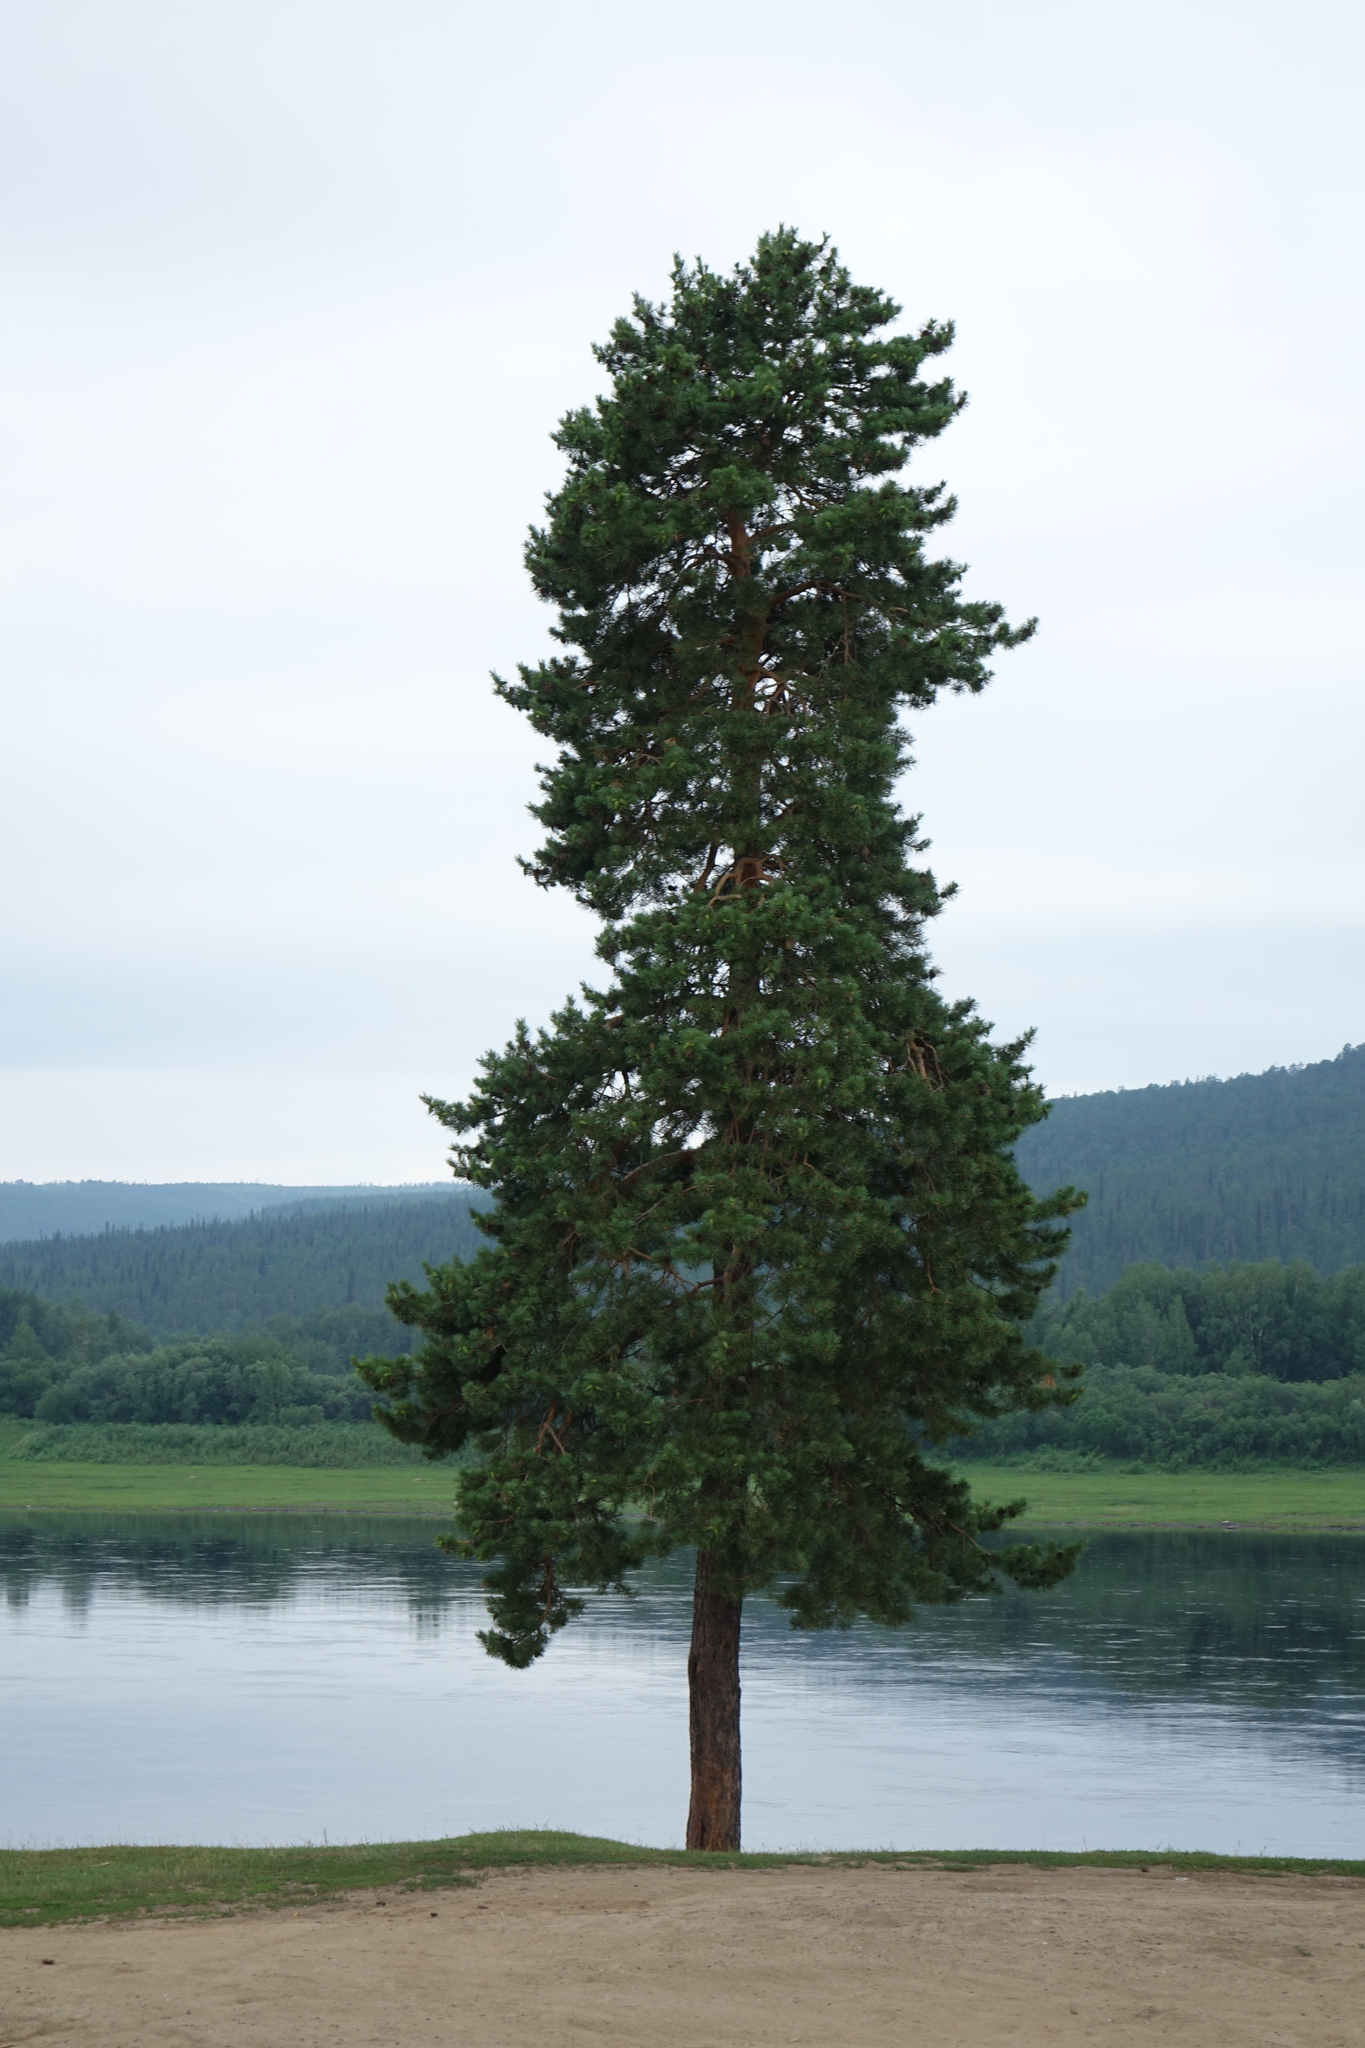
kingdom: Plantae
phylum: Tracheophyta
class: Pinopsida
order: Pinales
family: Pinaceae
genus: Pinus
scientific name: Pinus sylvestris
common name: Scots pine
